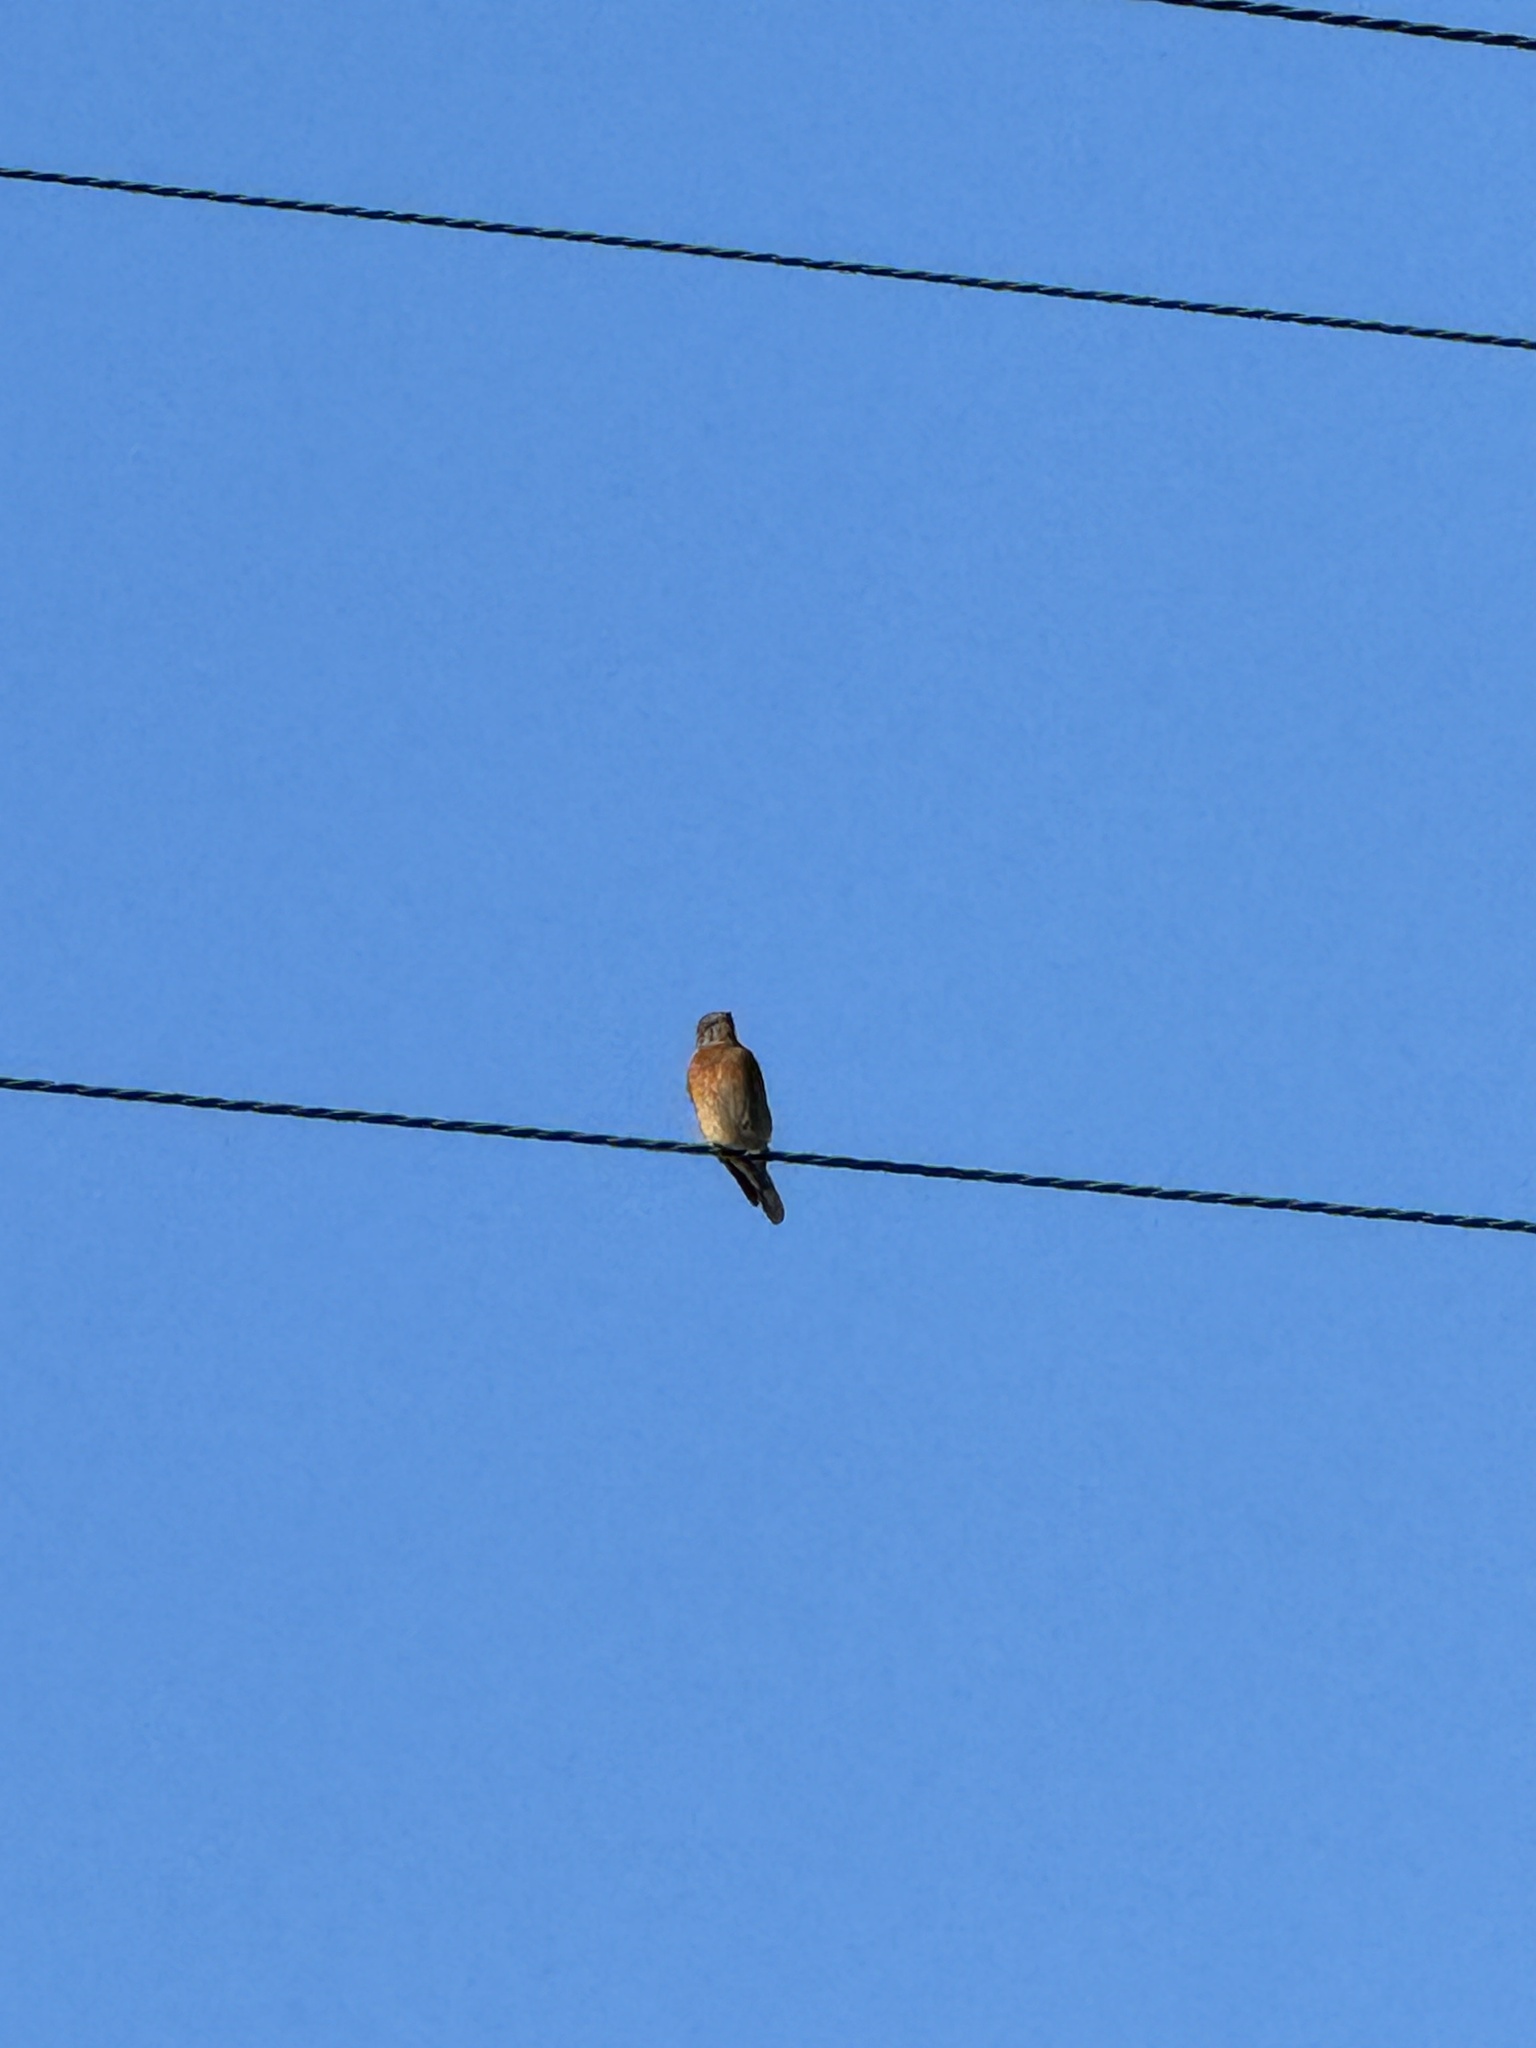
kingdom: Animalia
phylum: Chordata
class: Aves
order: Passeriformes
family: Turdidae
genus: Sialia
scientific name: Sialia mexicana
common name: Western bluebird
